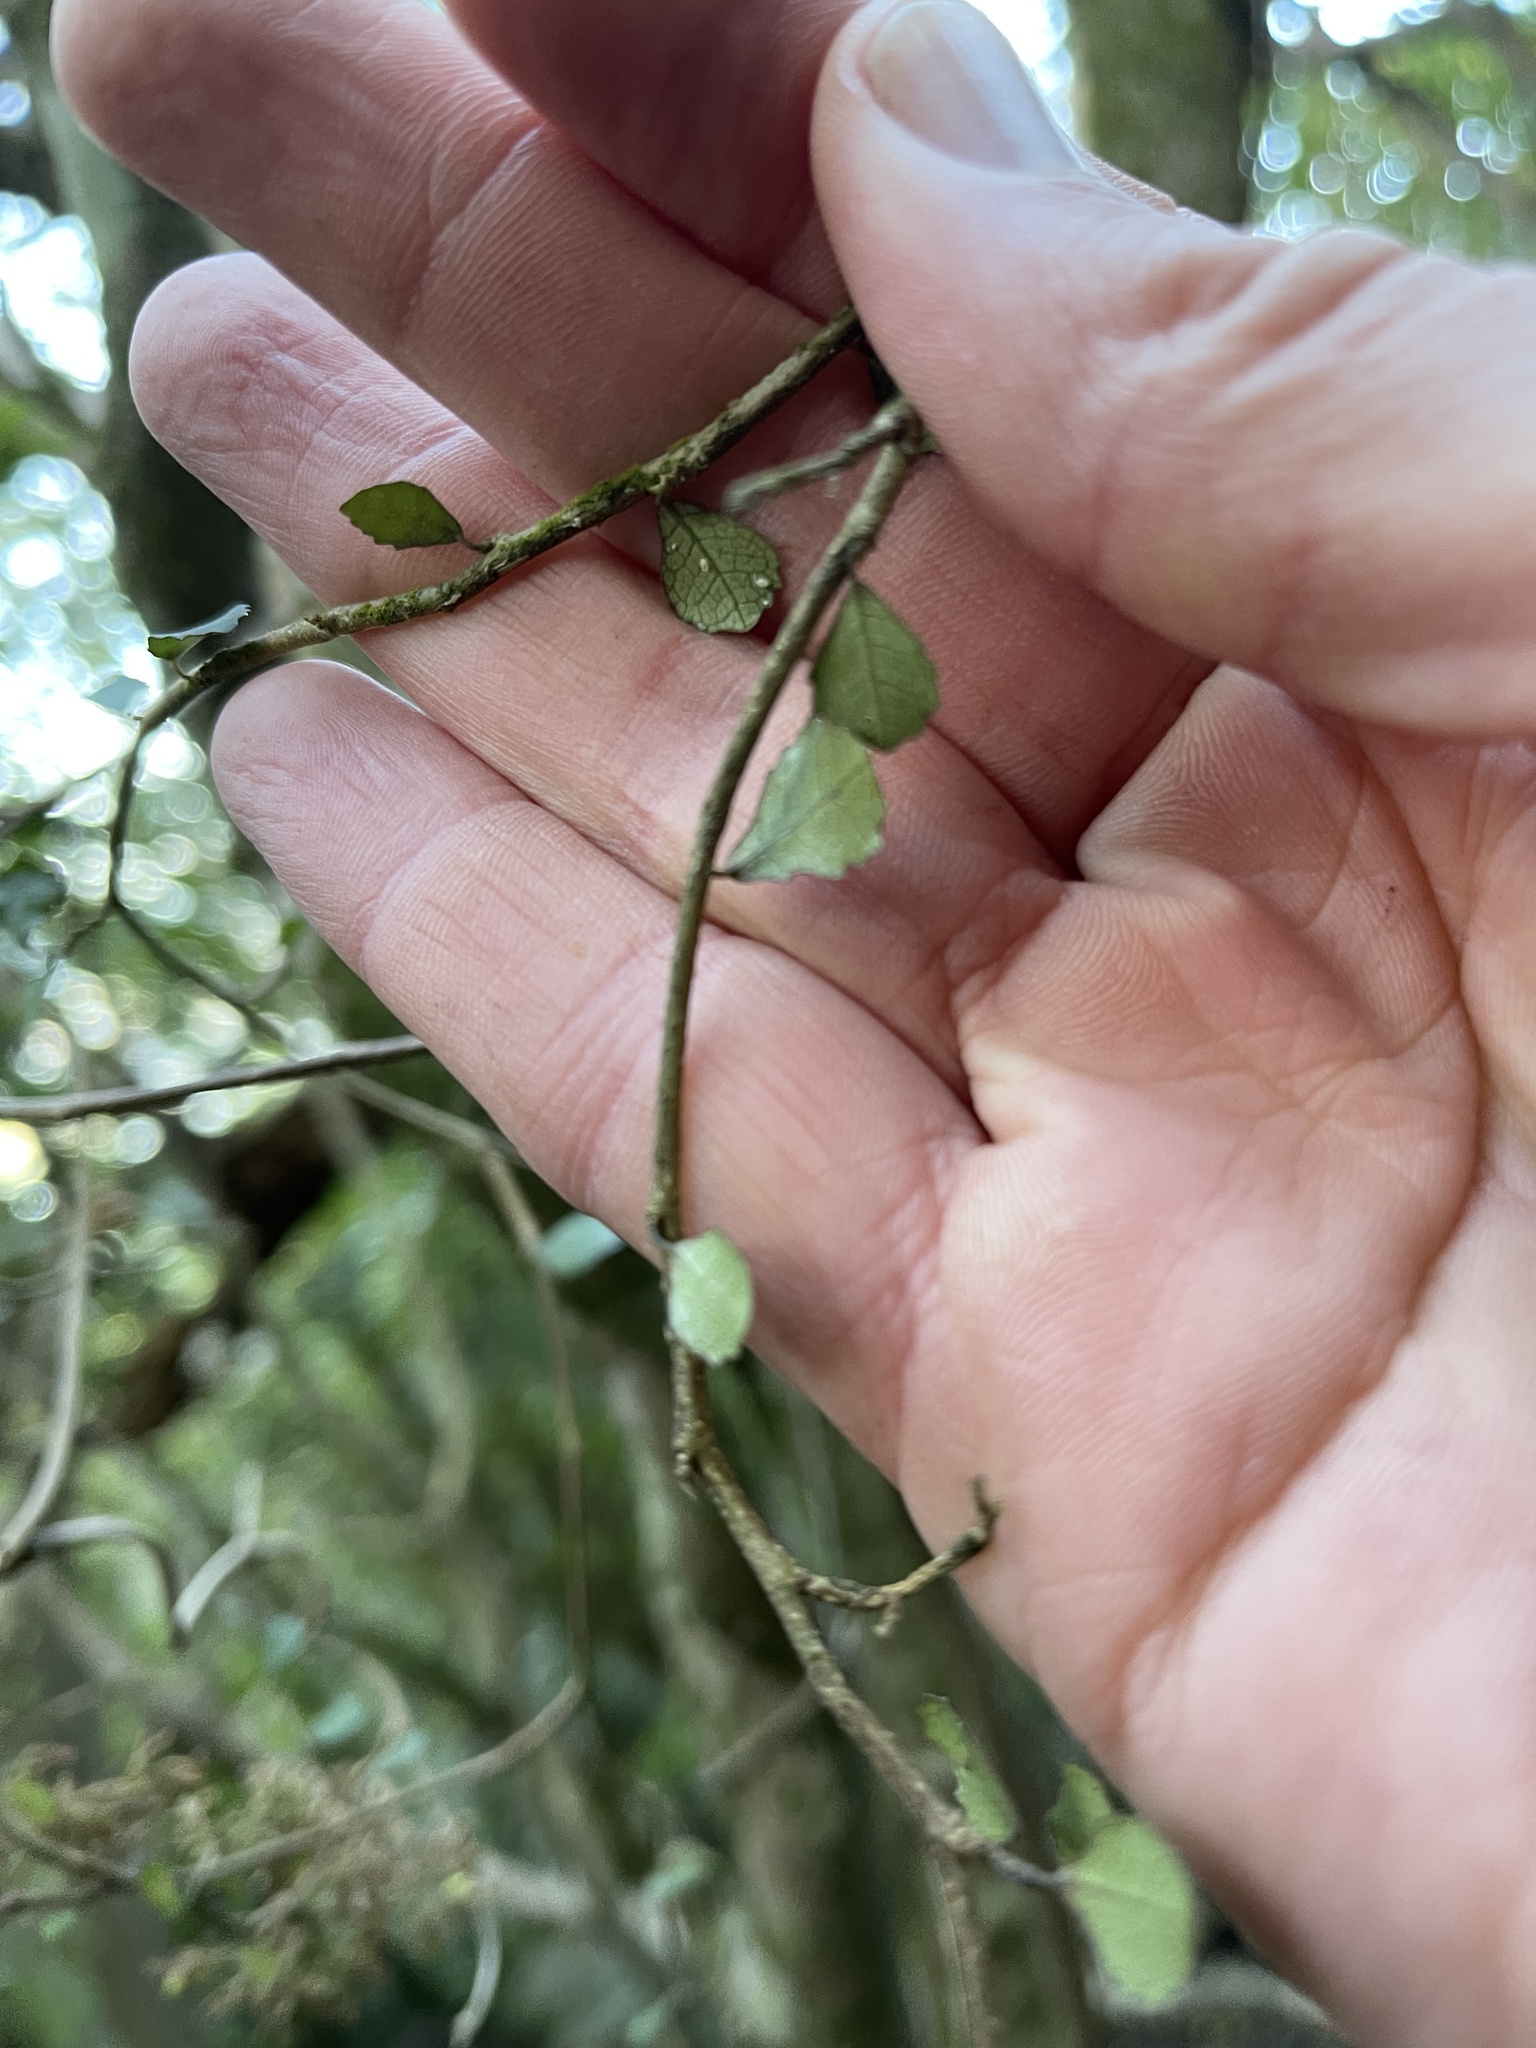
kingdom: Plantae
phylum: Tracheophyta
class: Magnoliopsida
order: Rosales
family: Moraceae
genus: Paratrophis
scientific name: Paratrophis microphylla
